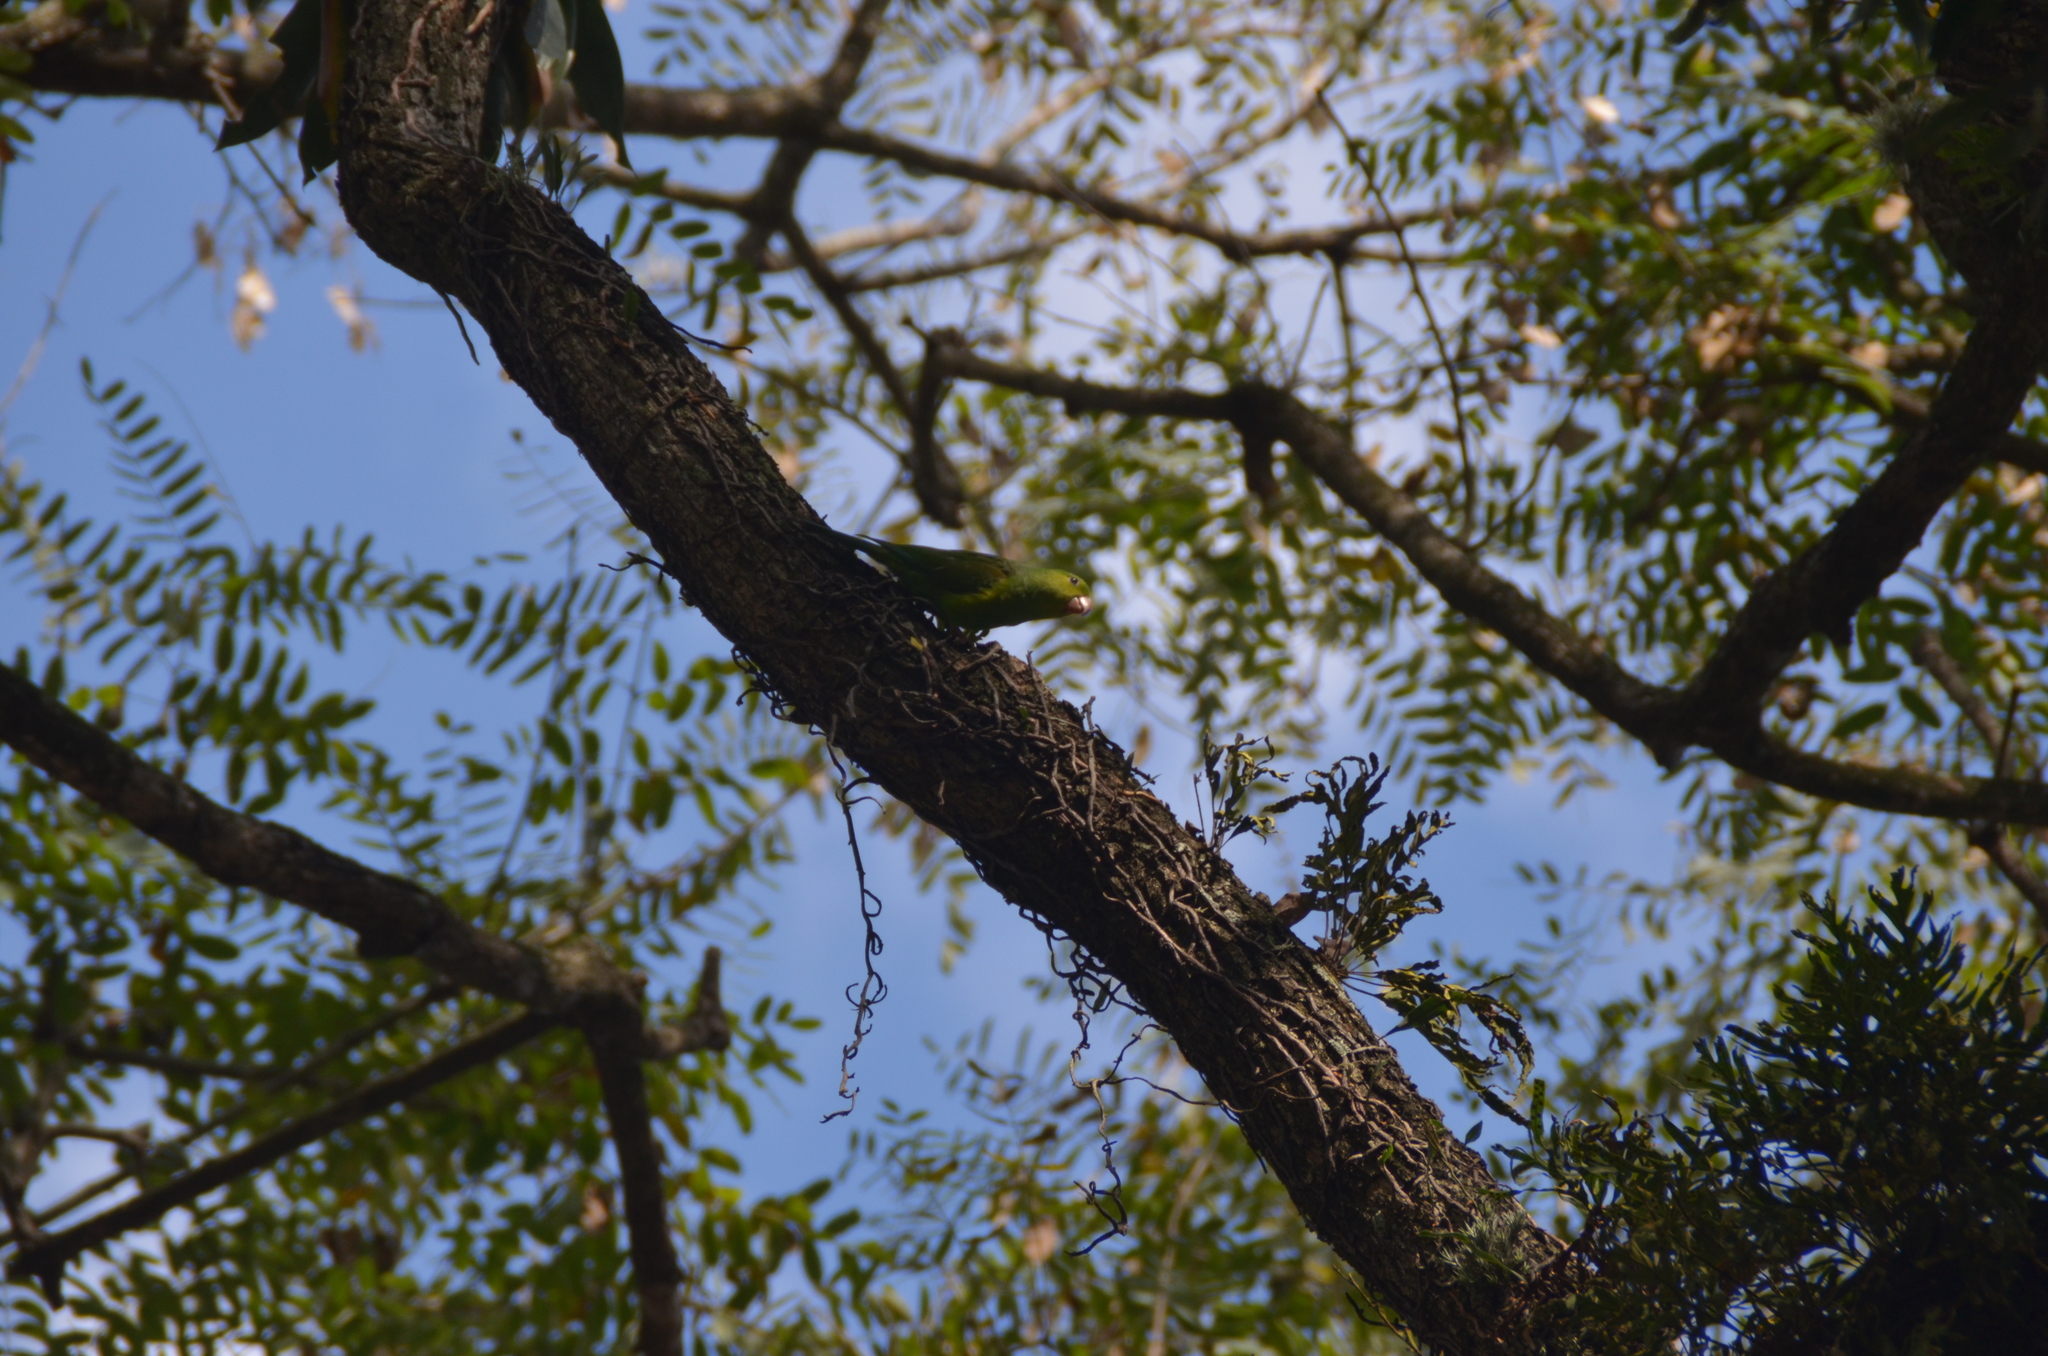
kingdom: Animalia
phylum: Chordata
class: Aves
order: Psittaciformes
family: Psittacidae
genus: Brotogeris
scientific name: Brotogeris tirica
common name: Plain parakeet
